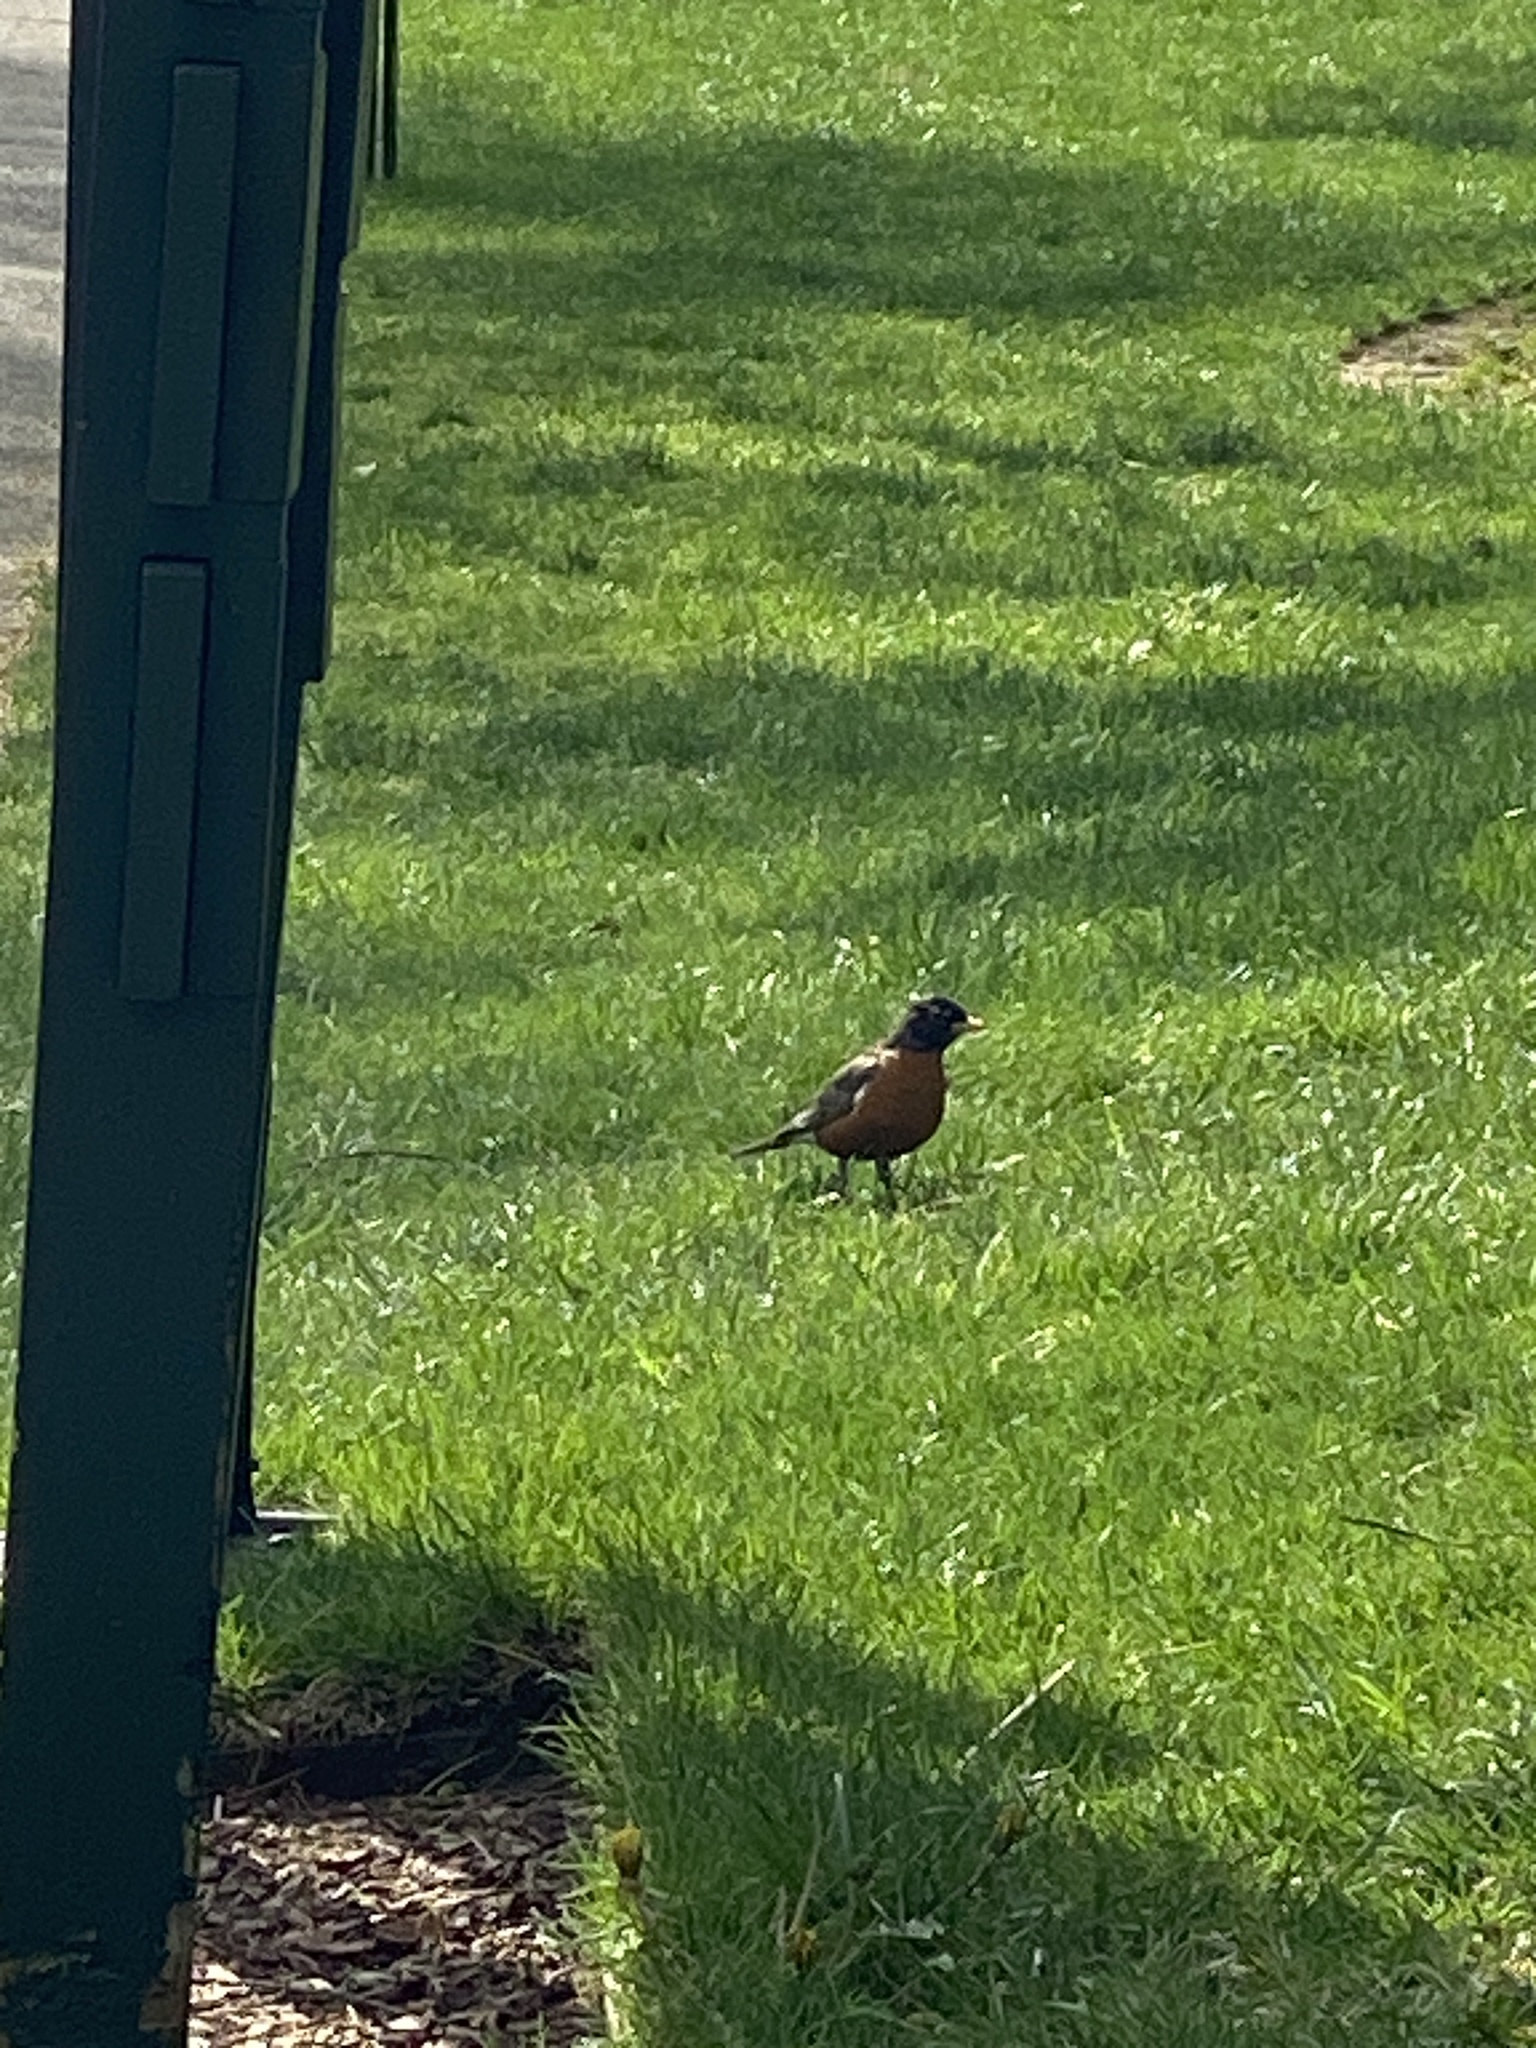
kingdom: Animalia
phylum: Chordata
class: Aves
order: Passeriformes
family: Turdidae
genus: Turdus
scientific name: Turdus migratorius
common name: American robin
